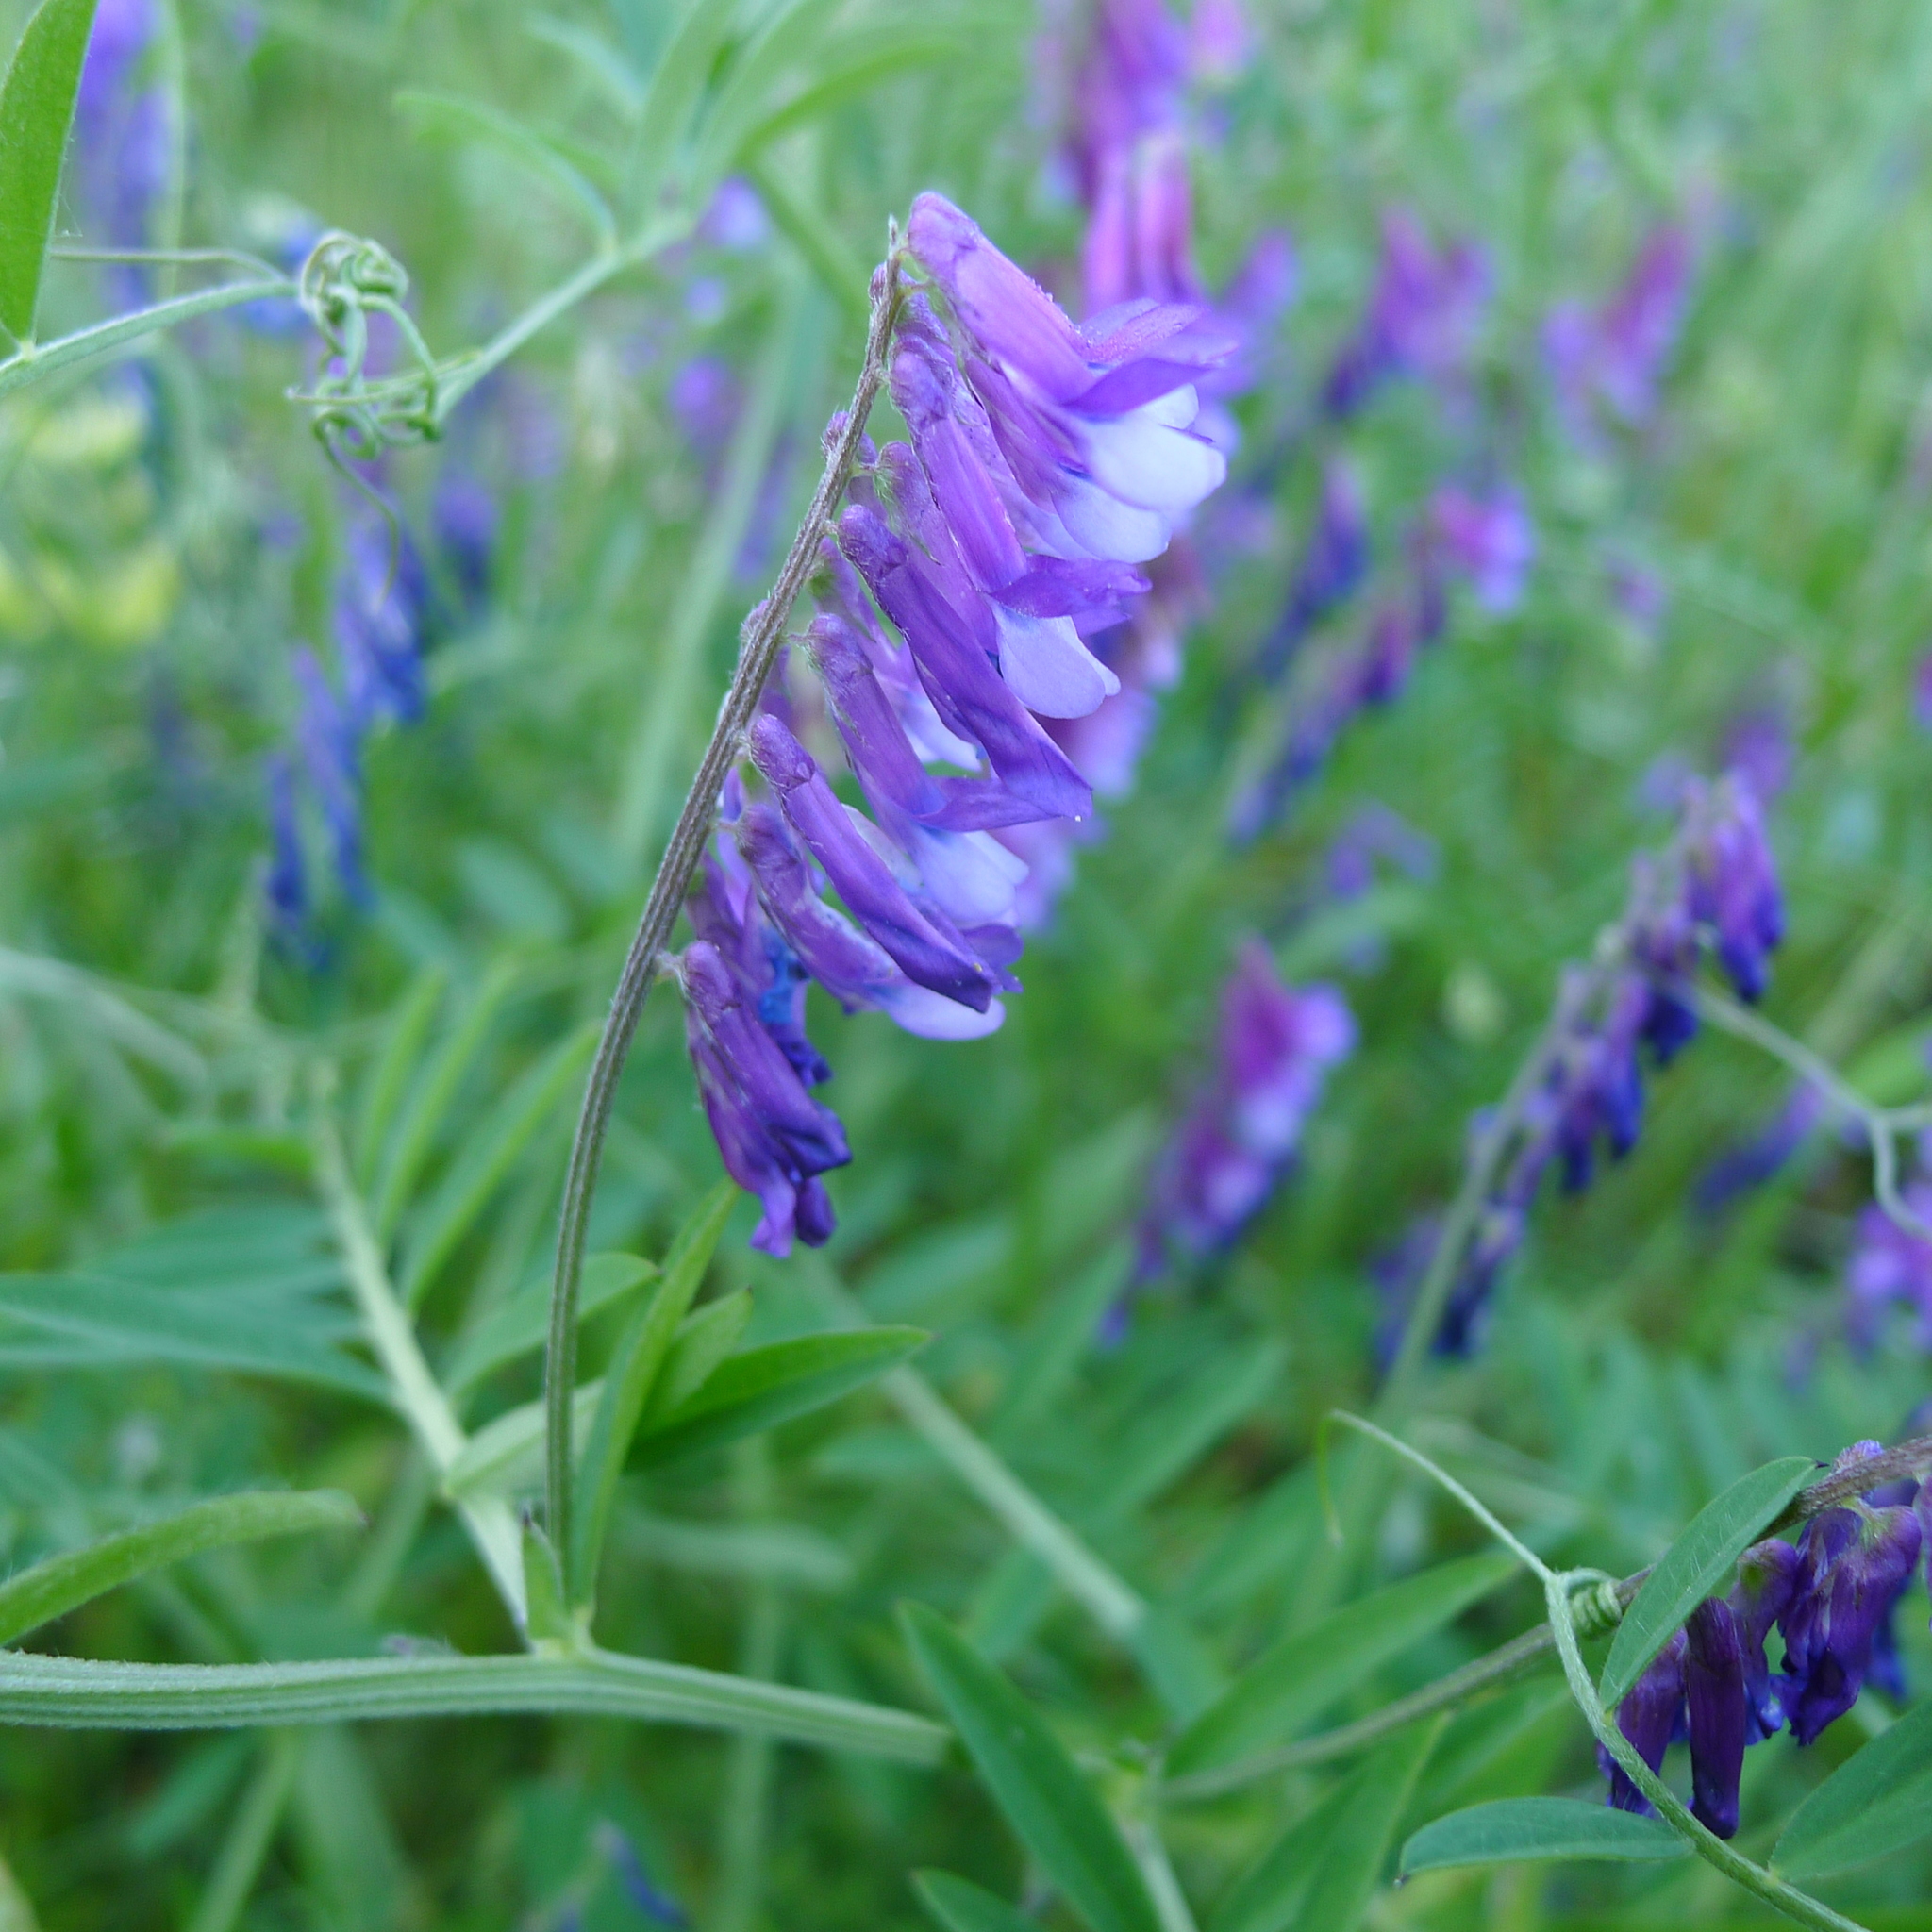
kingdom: Plantae
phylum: Tracheophyta
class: Magnoliopsida
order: Fabales
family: Fabaceae
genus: Vicia
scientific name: Vicia villosa
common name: Fodder vetch
